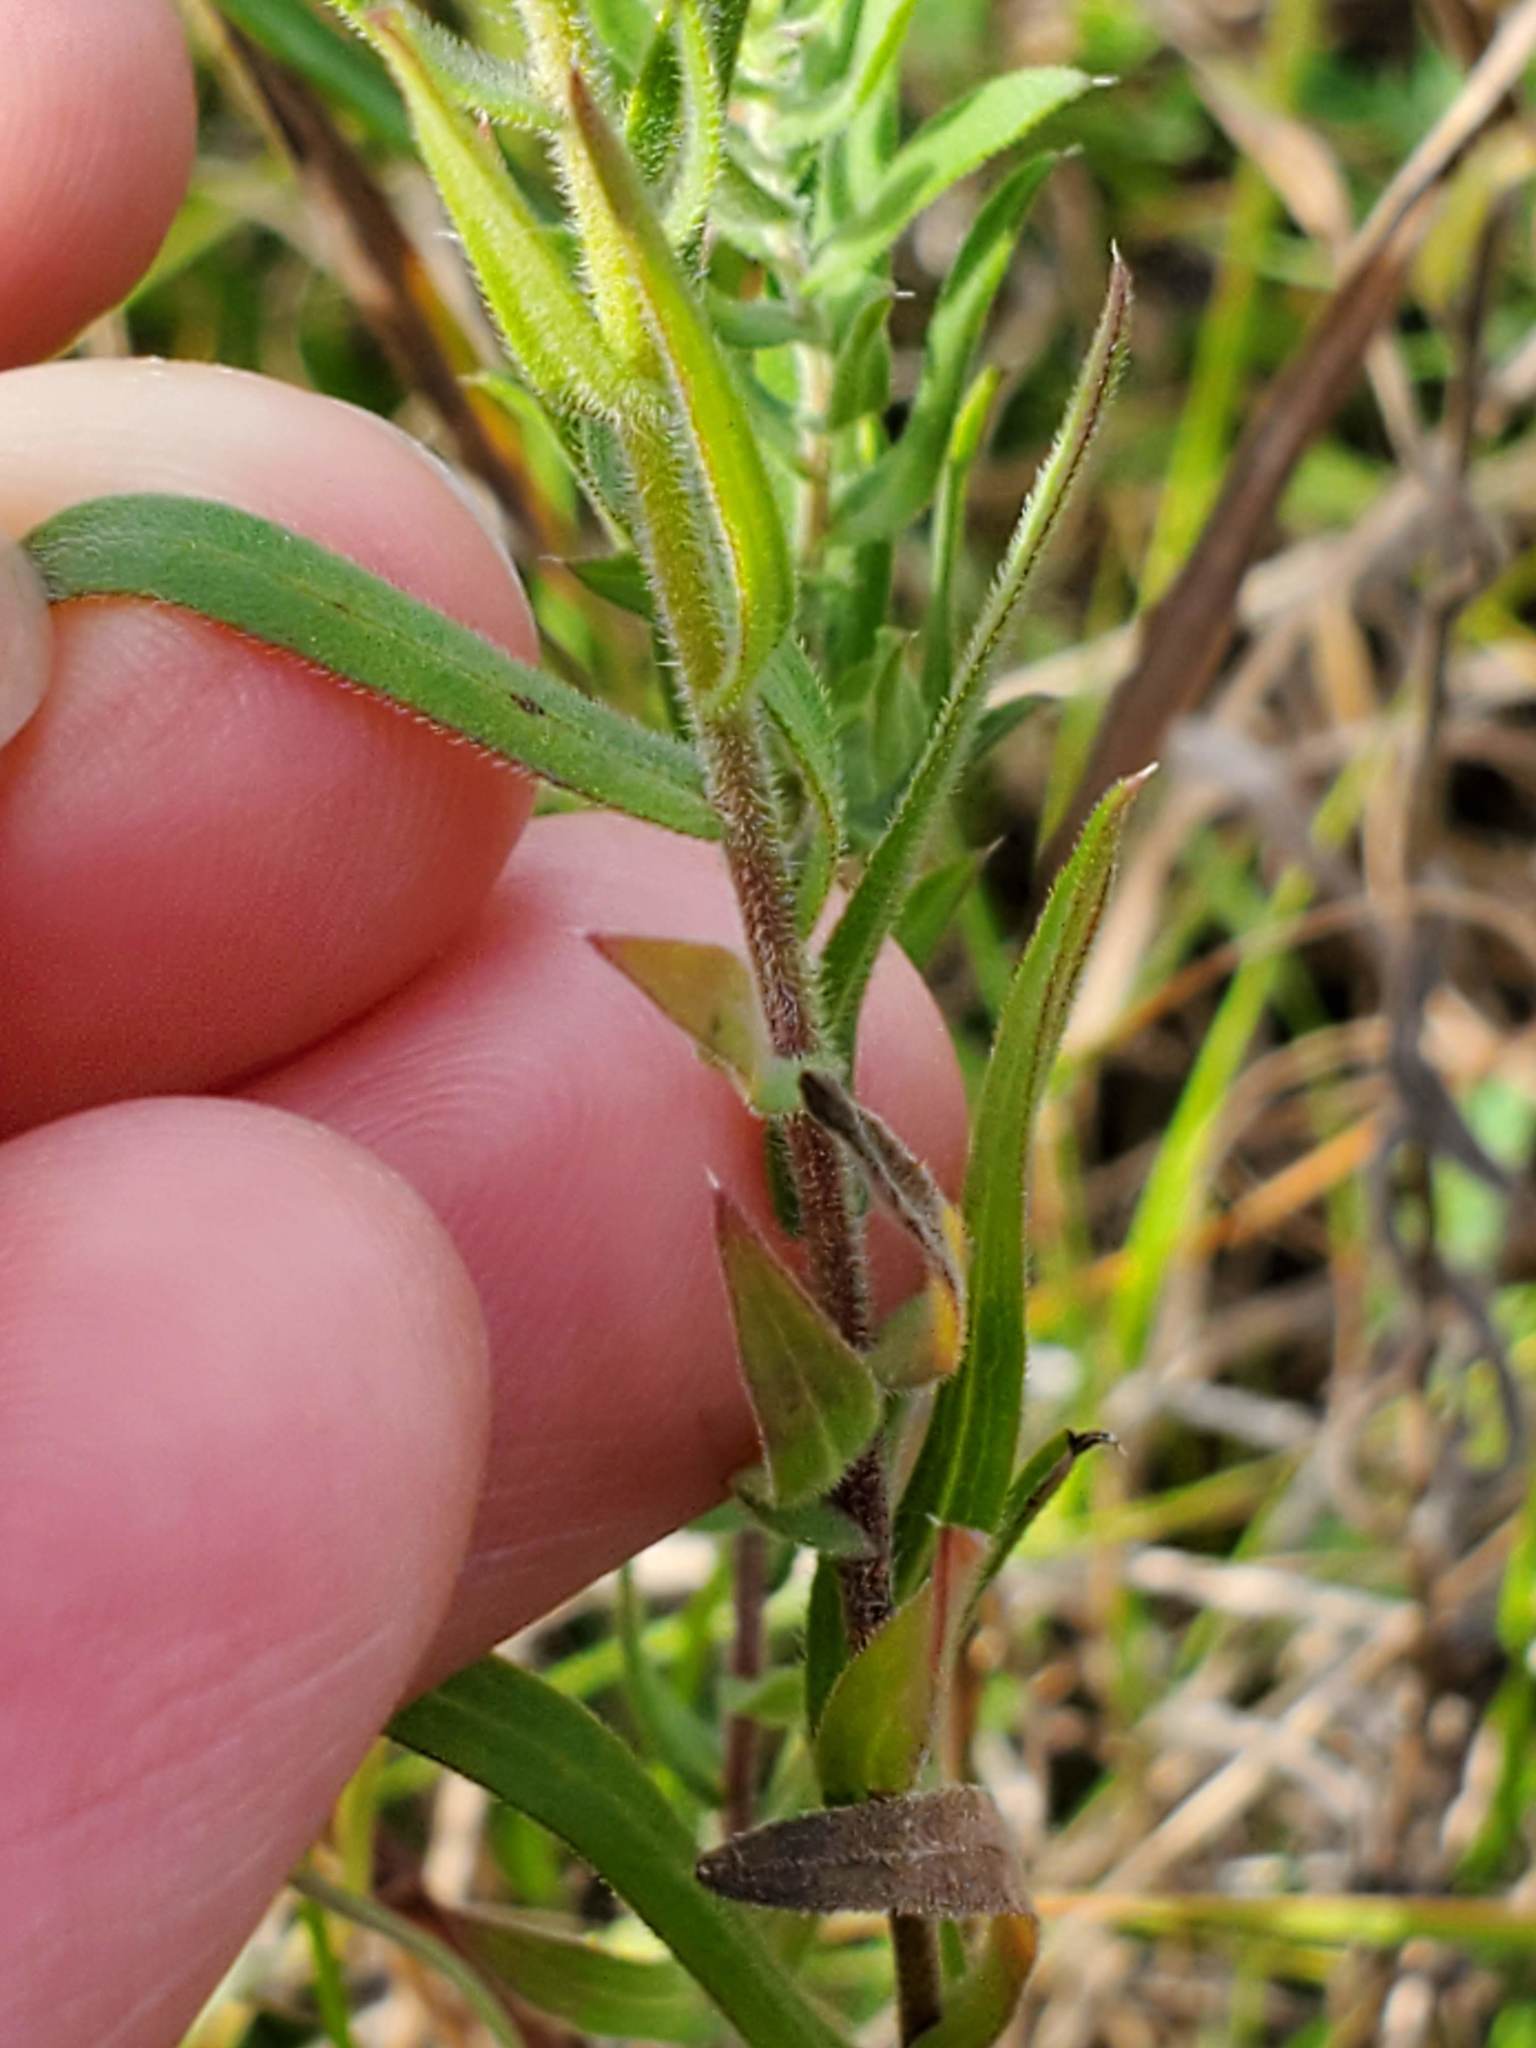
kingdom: Plantae
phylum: Tracheophyta
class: Magnoliopsida
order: Asterales
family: Asteraceae
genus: Symphyotrichum
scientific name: Symphyotrichum pilosum
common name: Awl aster
